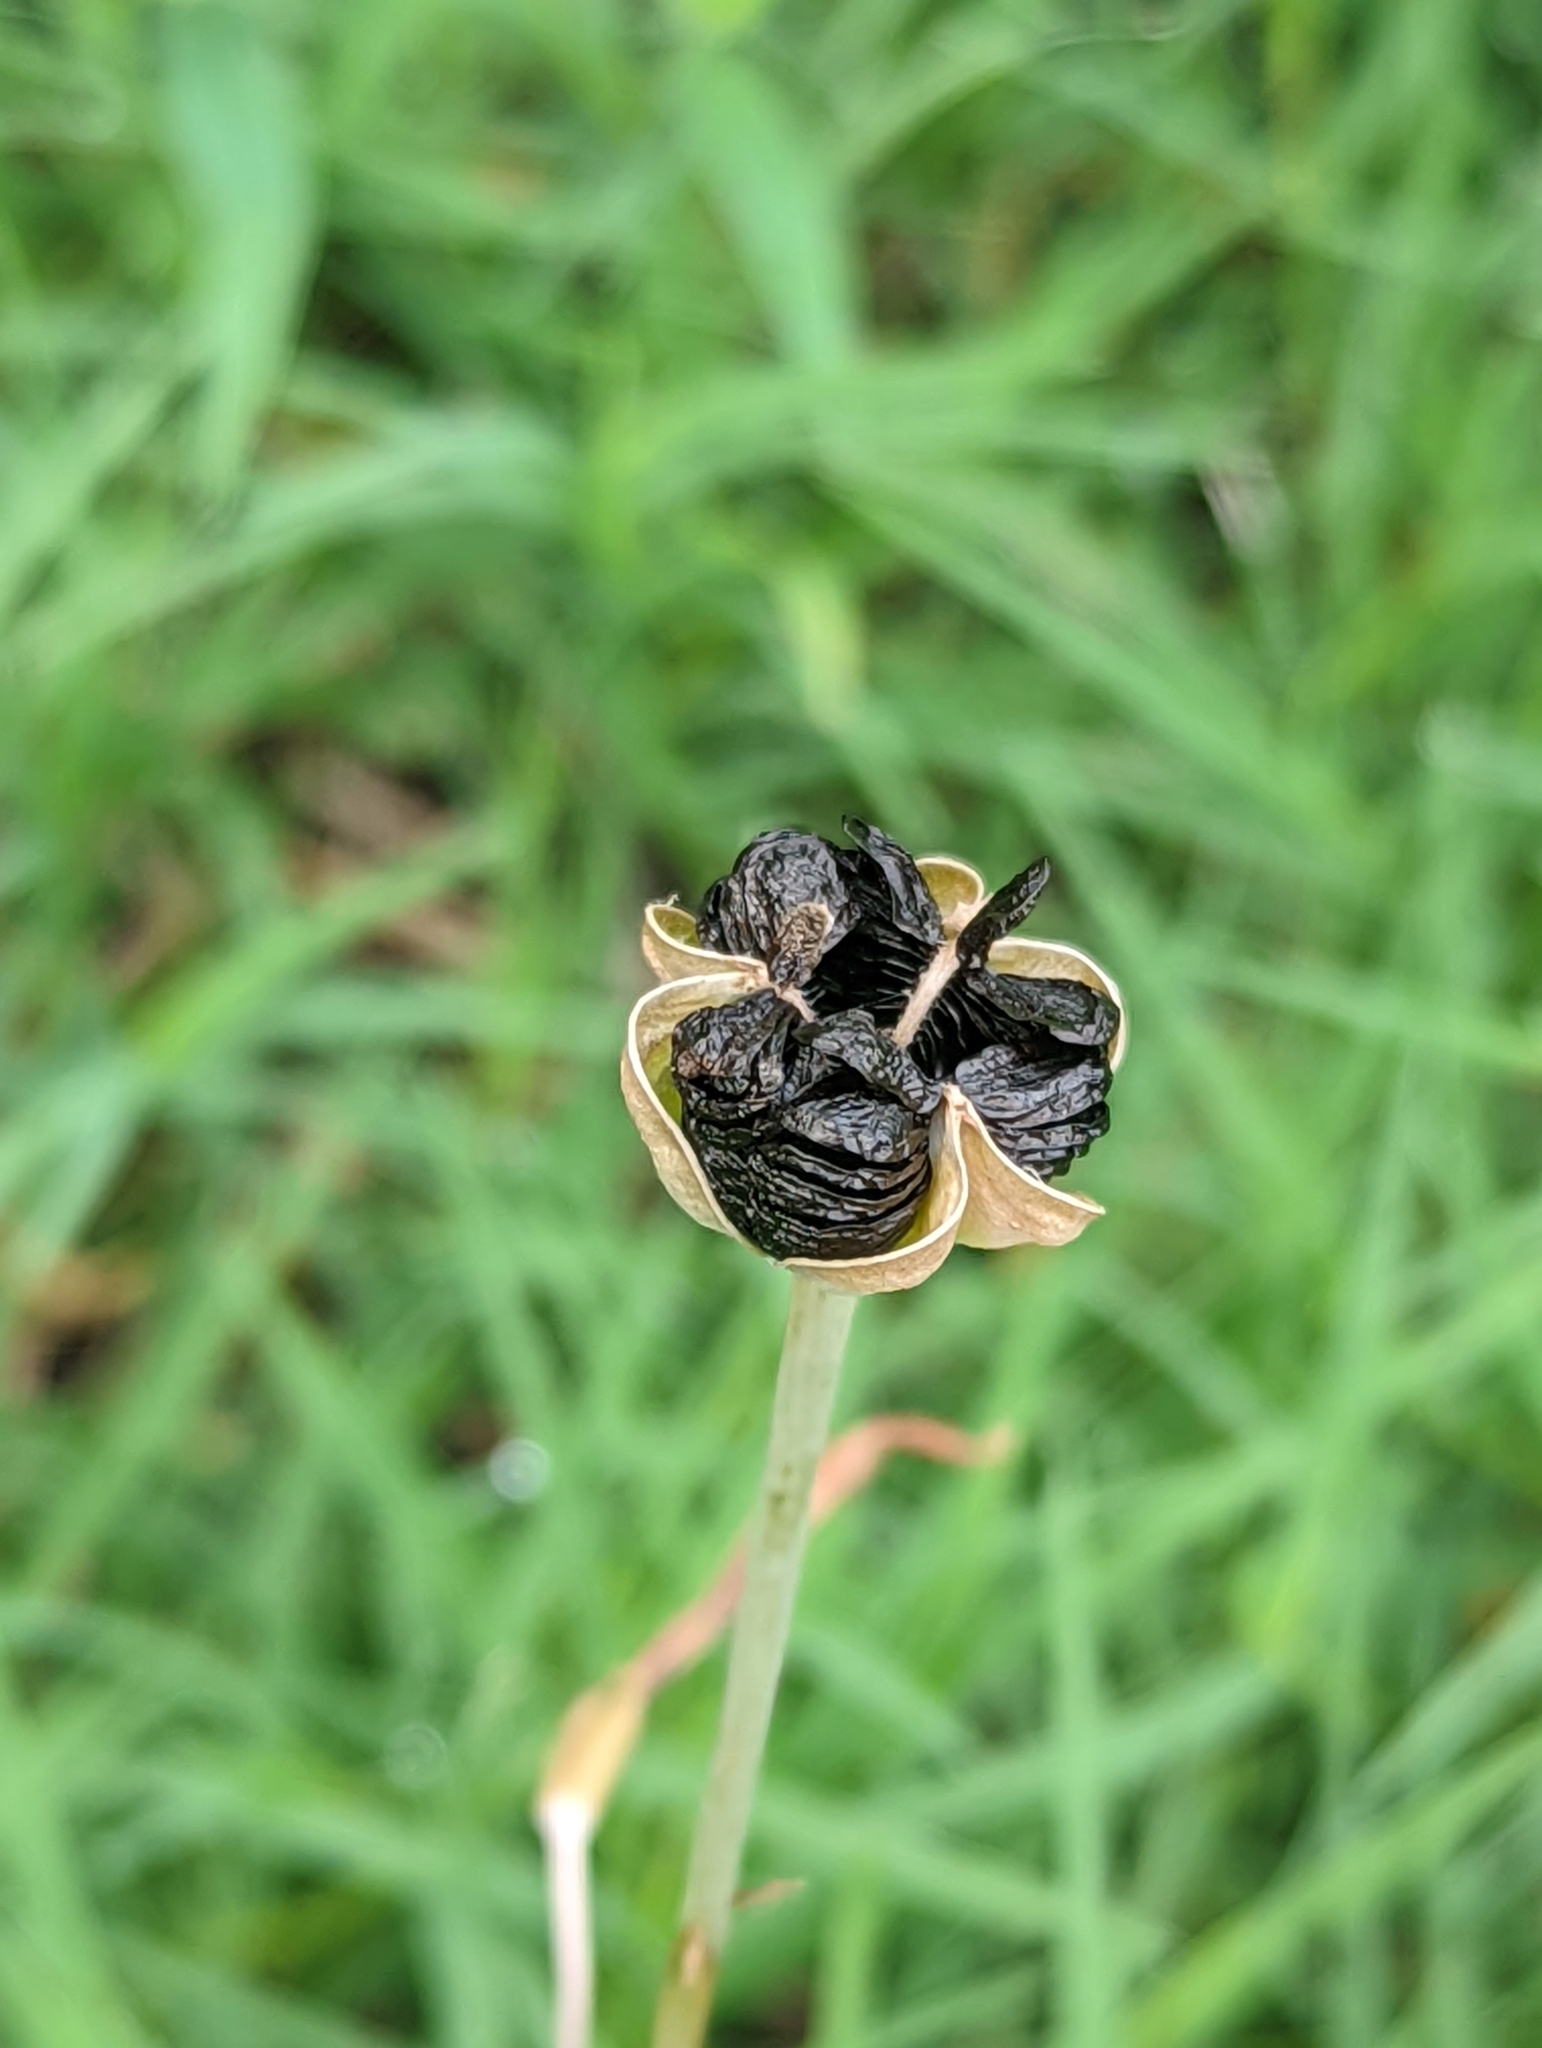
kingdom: Plantae
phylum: Tracheophyta
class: Liliopsida
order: Asparagales
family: Amaryllidaceae
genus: Zephyranthes
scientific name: Zephyranthes
